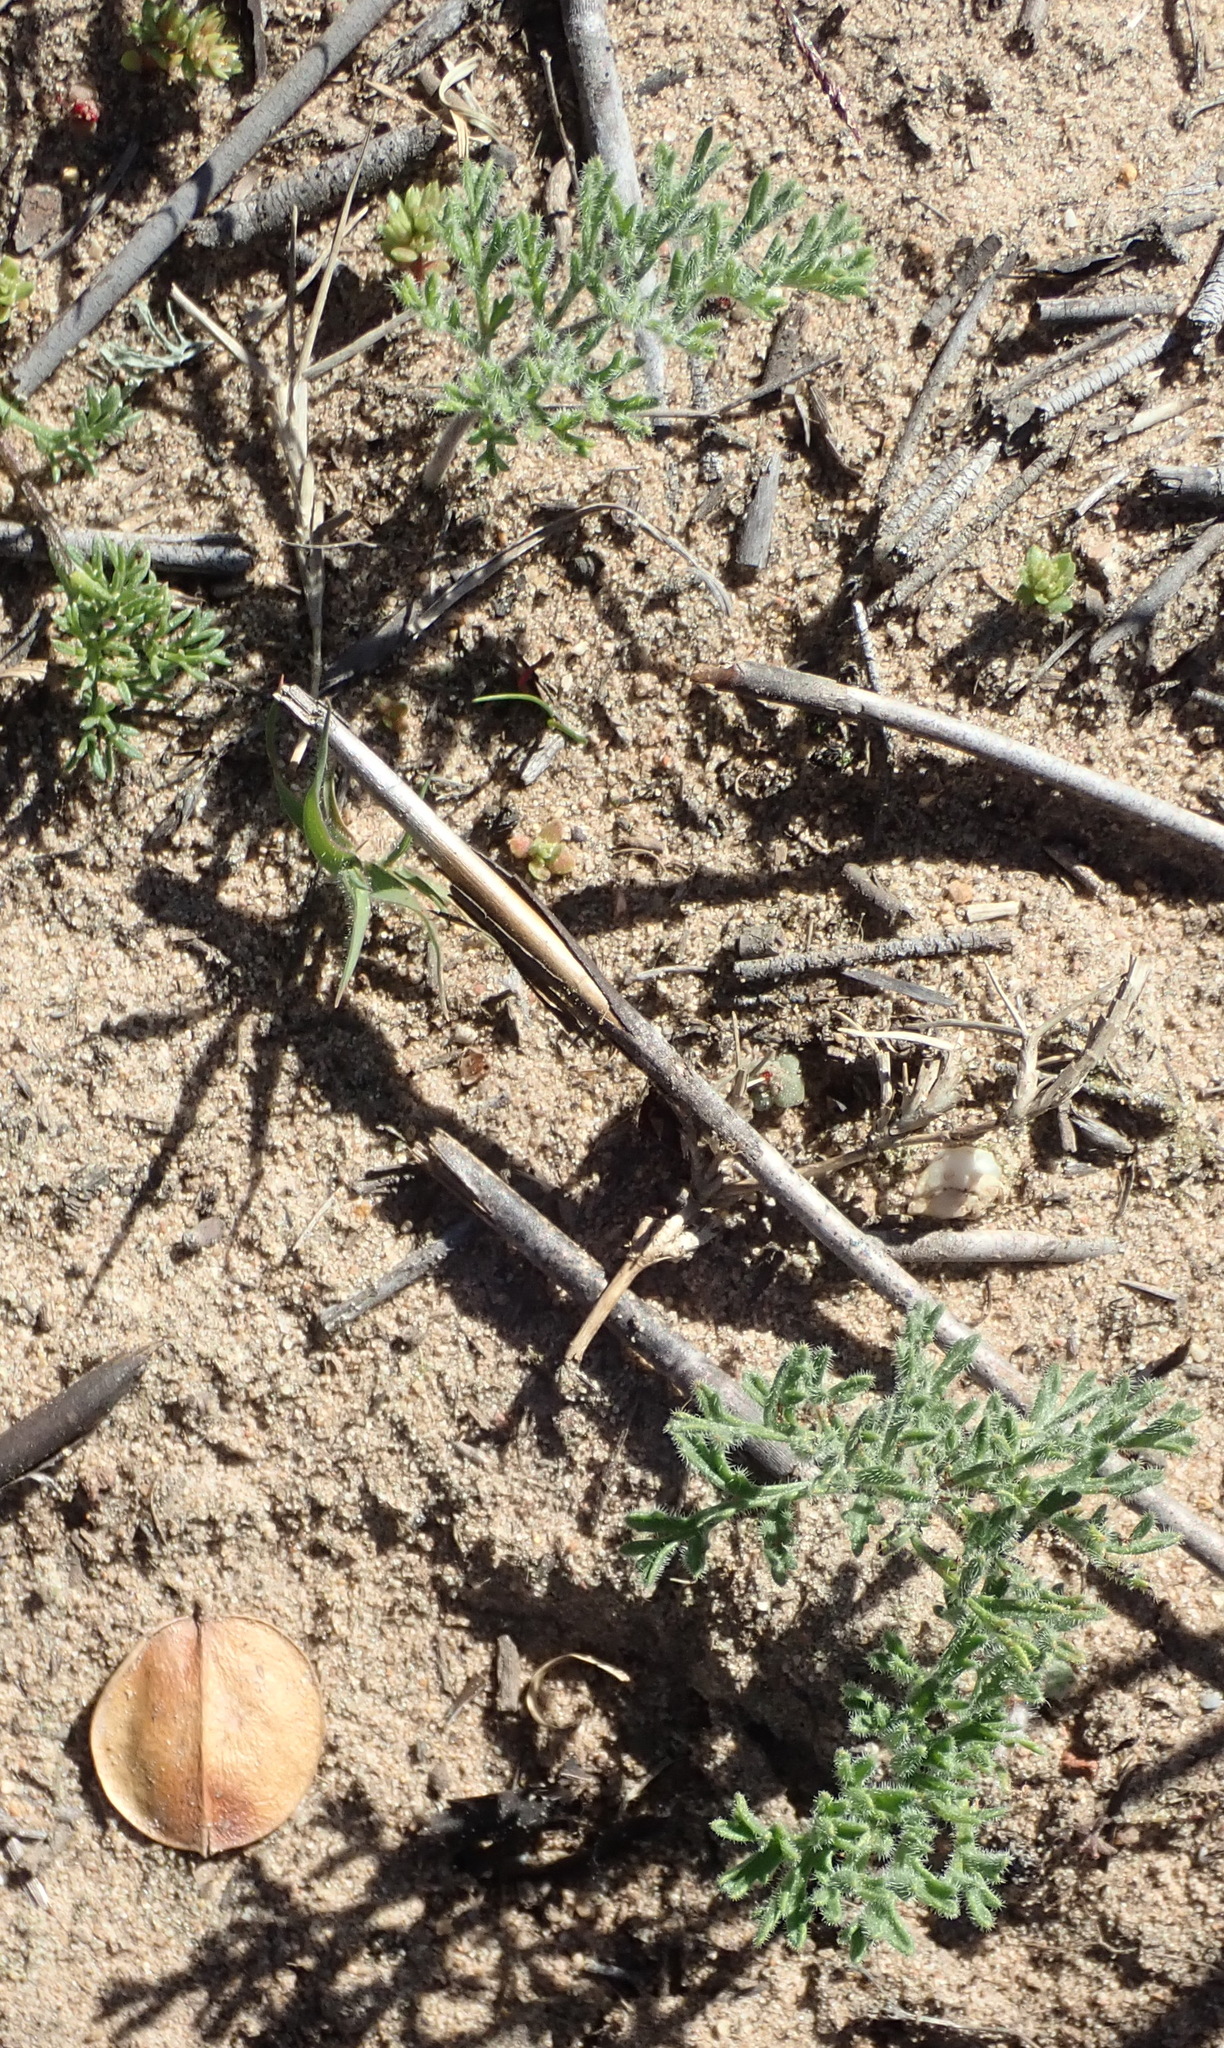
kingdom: Plantae
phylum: Tracheophyta
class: Magnoliopsida
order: Geraniales
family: Geraniaceae
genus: Pelargonium
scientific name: Pelargonium triste
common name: Night-scent pelargonium
